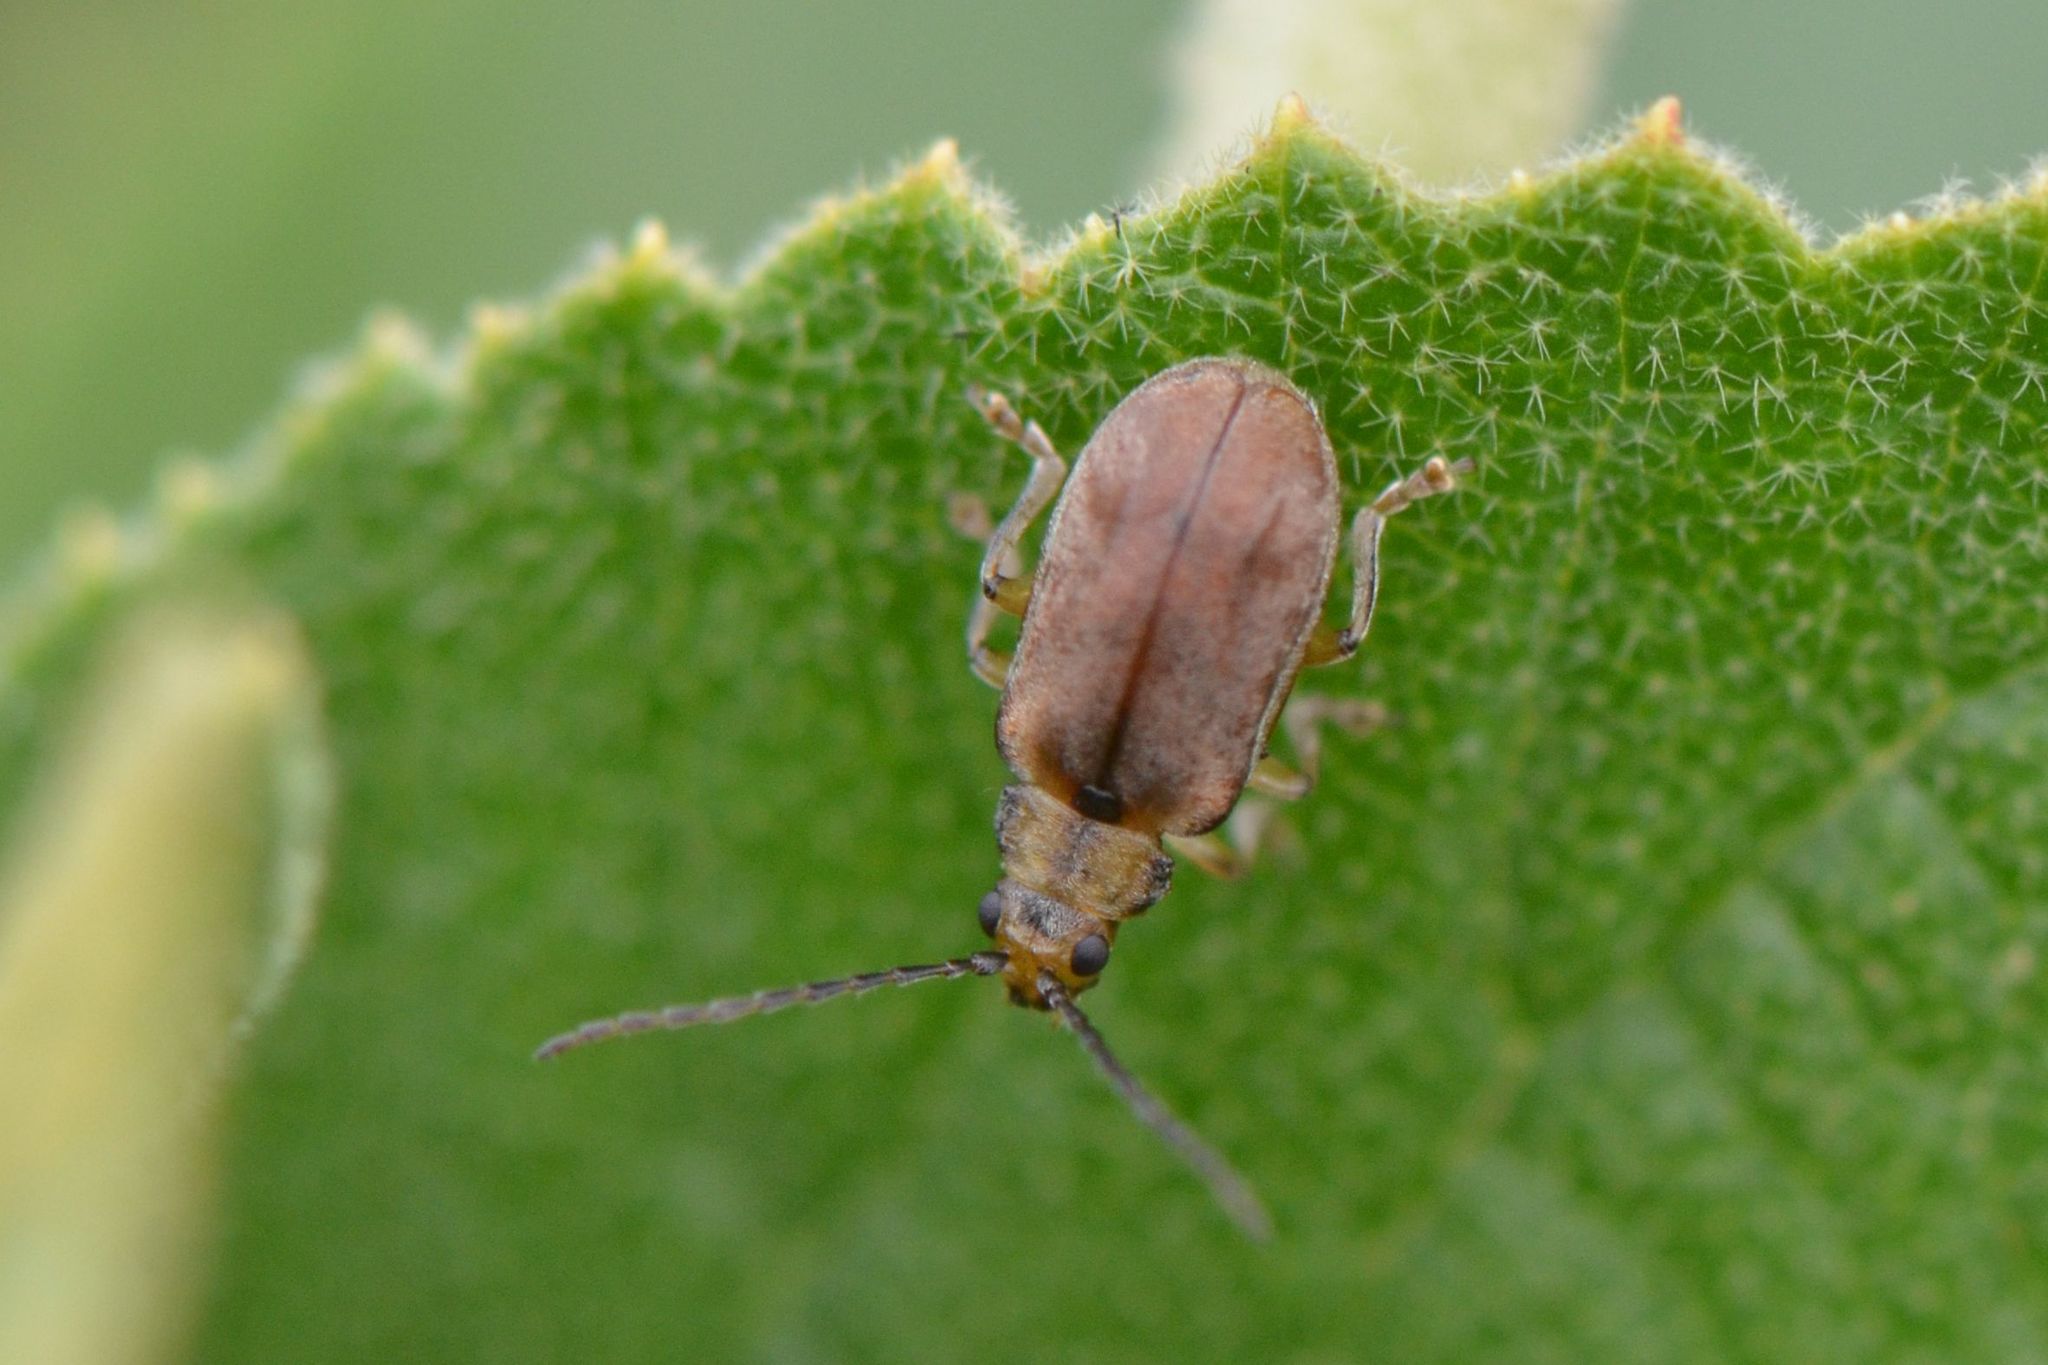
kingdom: Animalia
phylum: Arthropoda
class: Insecta
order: Coleoptera
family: Chrysomelidae
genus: Pyrrhalta
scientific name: Pyrrhalta viburni
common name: Guelder-rose leaf beetle
